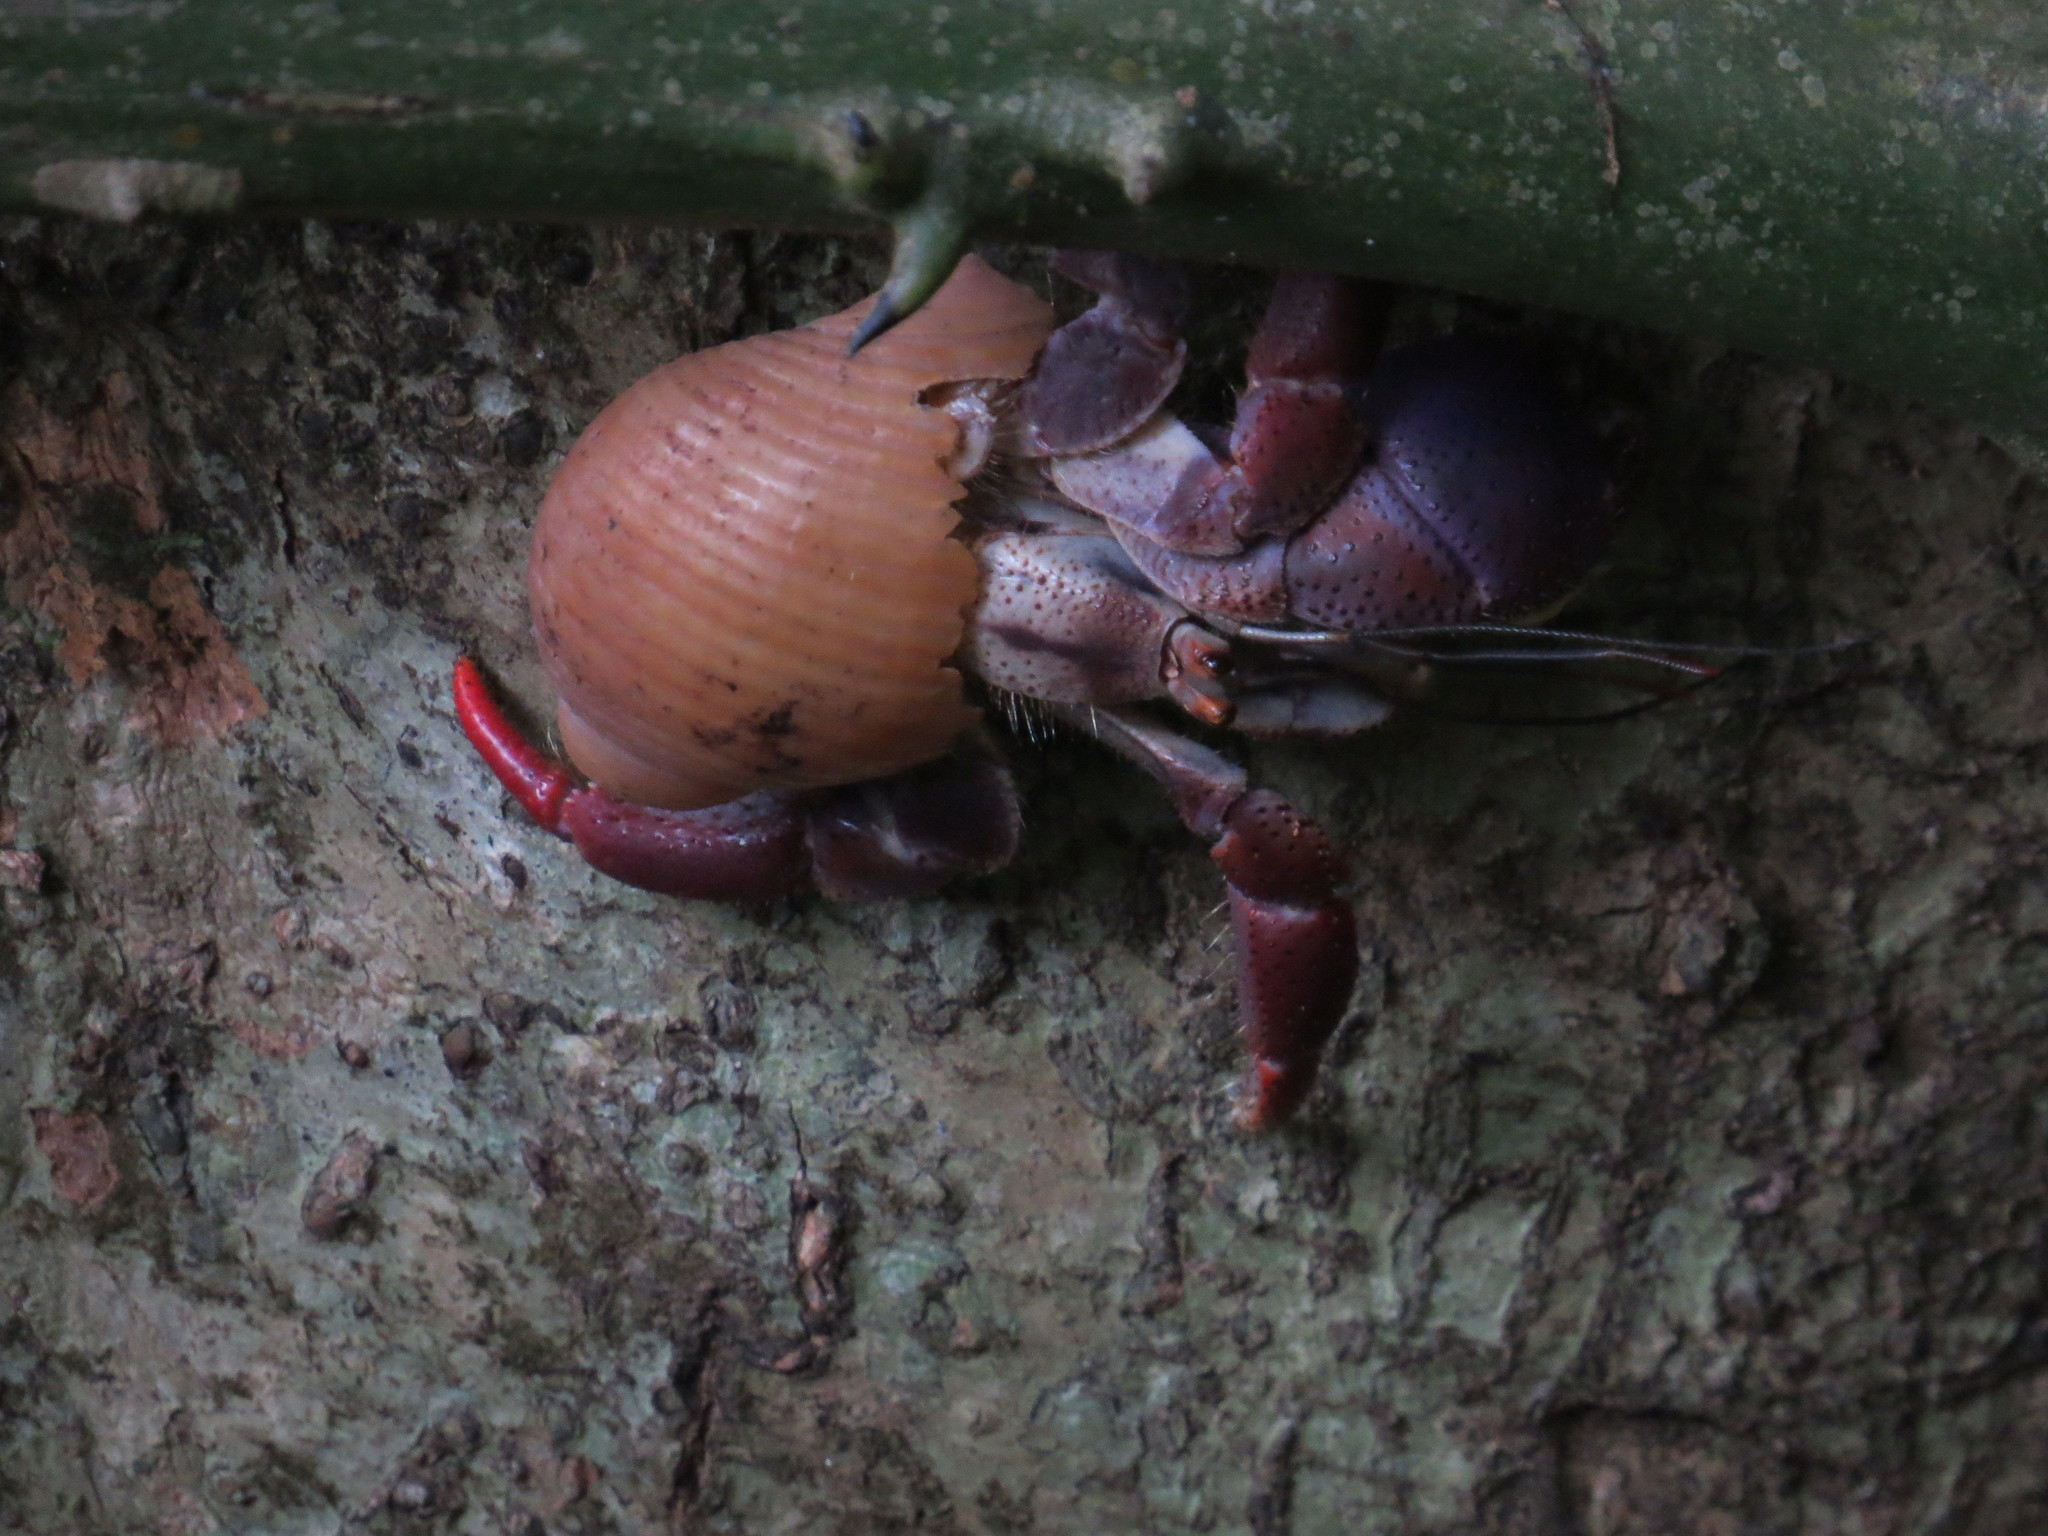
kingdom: Animalia
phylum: Arthropoda
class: Malacostraca
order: Decapoda
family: Coenobitidae
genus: Coenobita
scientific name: Coenobita clypeatus
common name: Caribbean hermit crab
